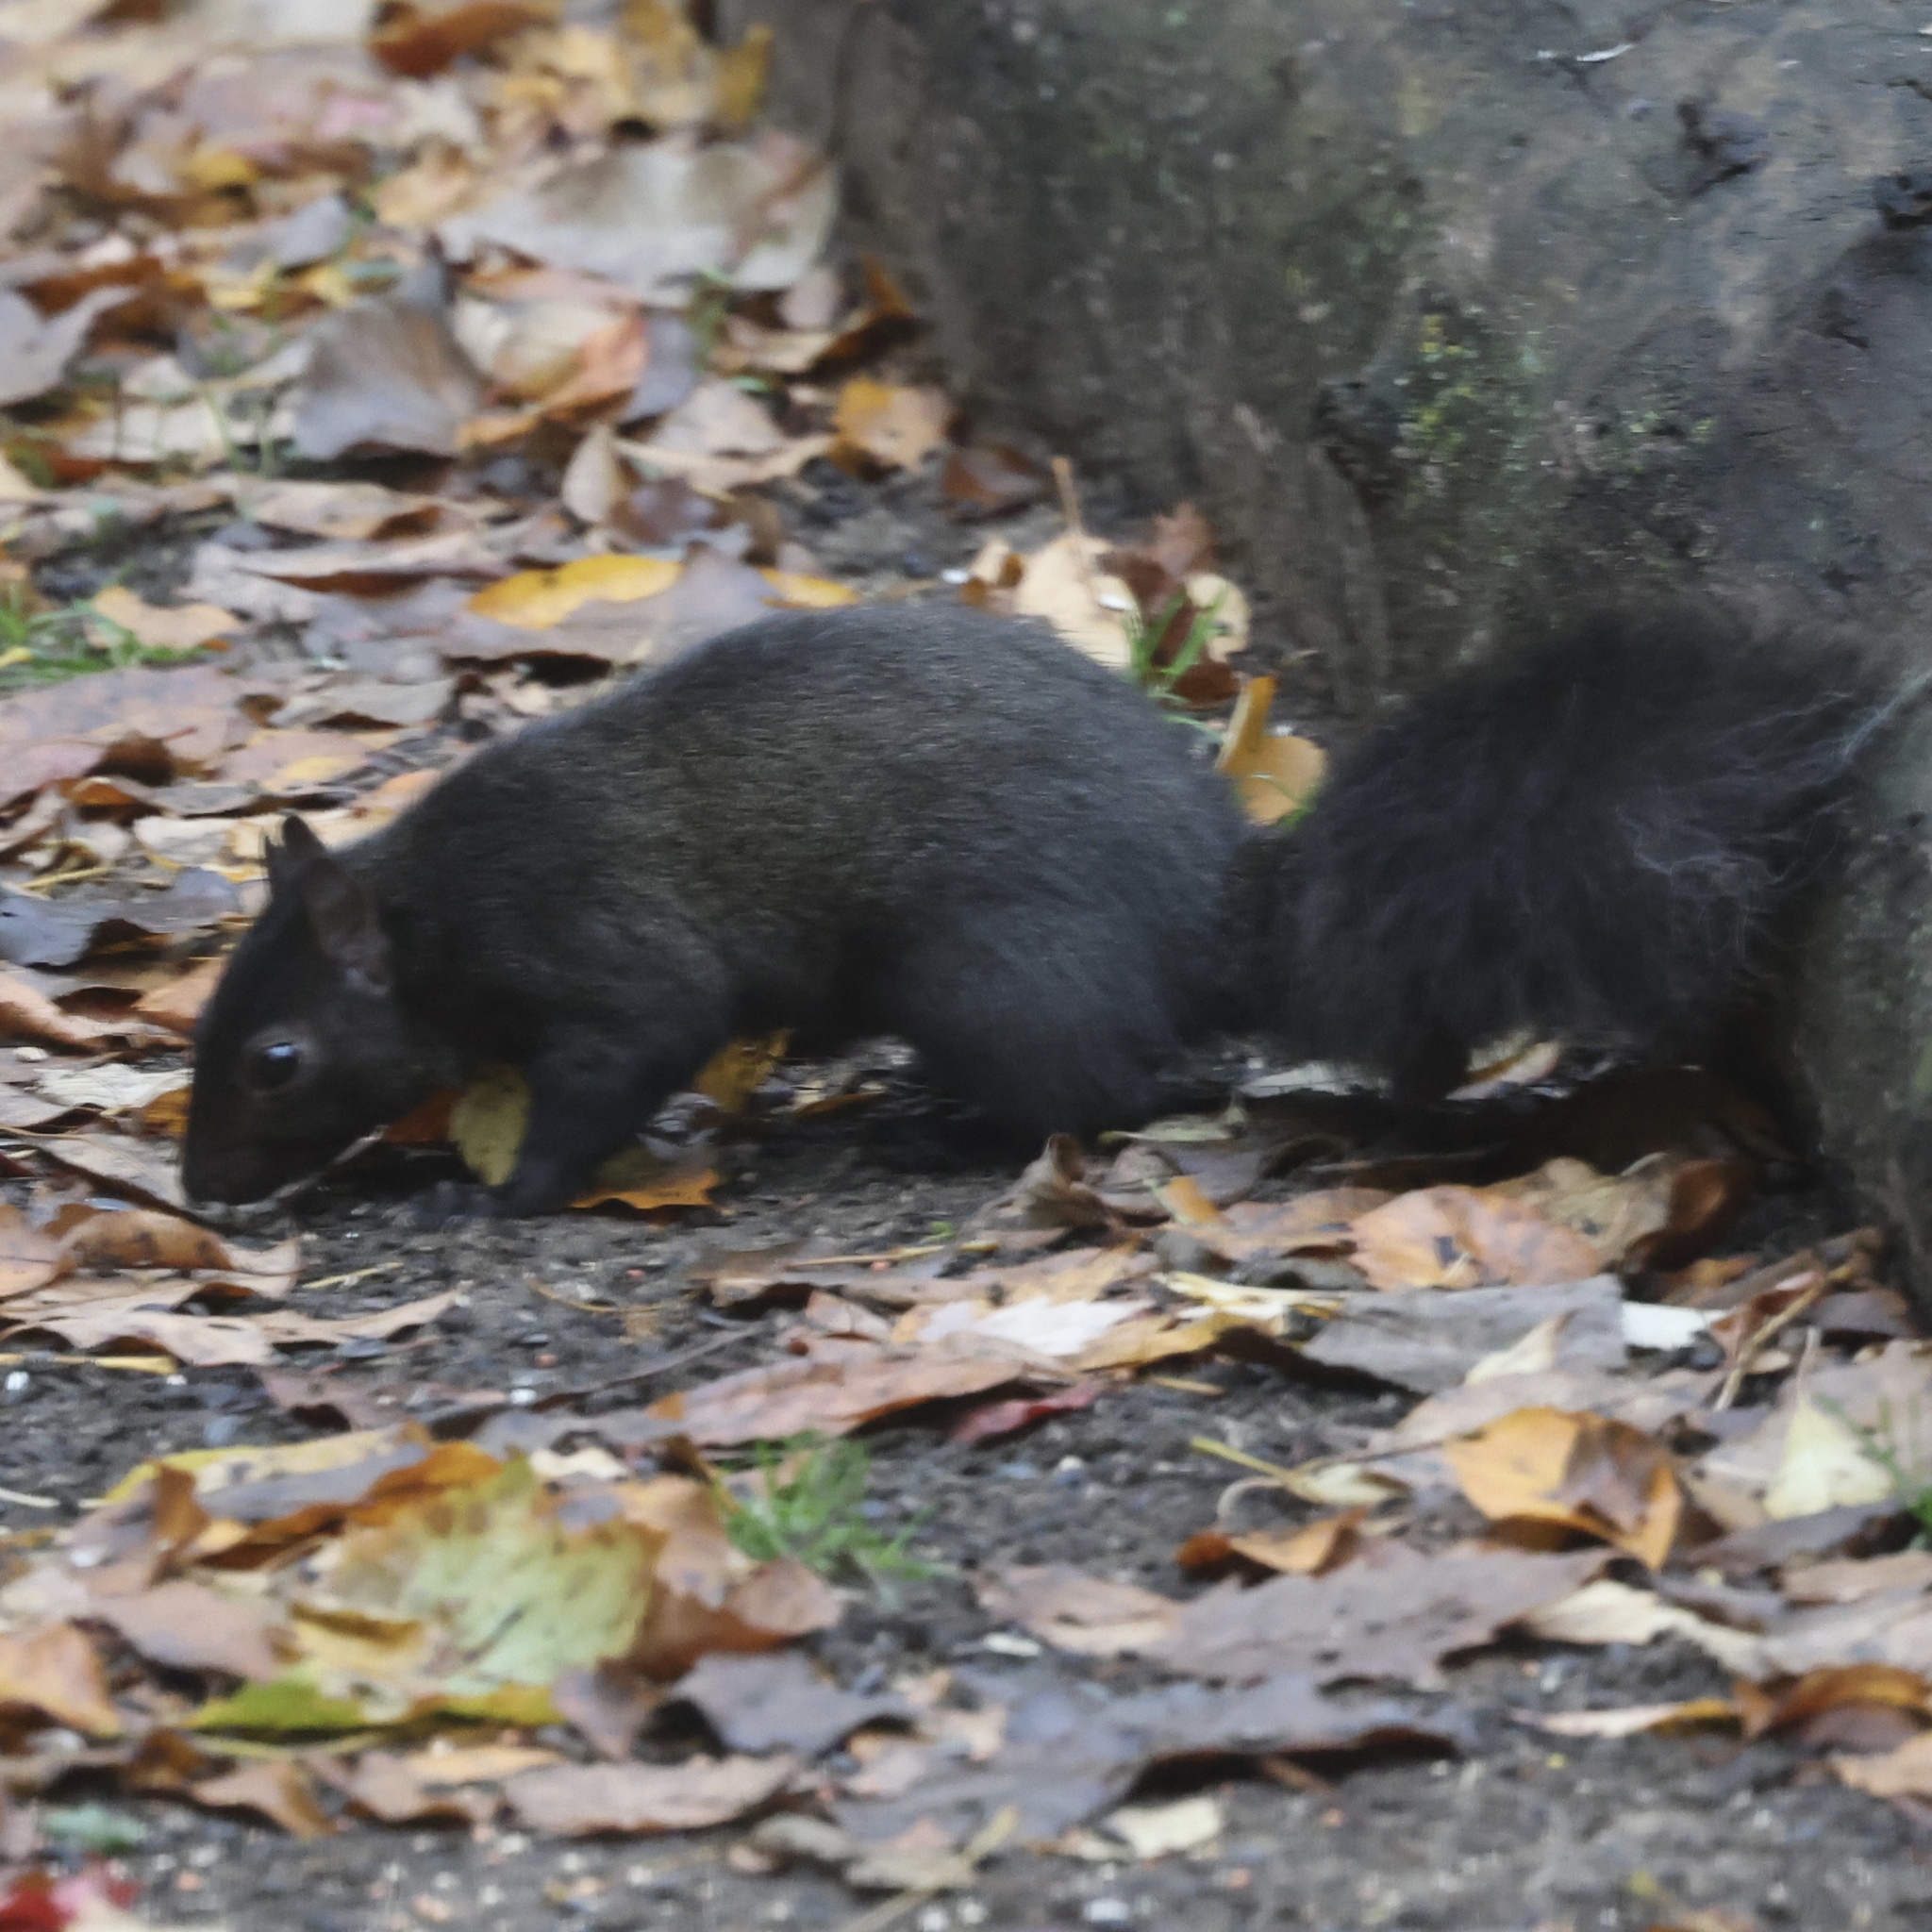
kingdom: Animalia
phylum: Chordata
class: Mammalia
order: Rodentia
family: Sciuridae
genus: Sciurus
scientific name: Sciurus carolinensis
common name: Eastern gray squirrel
